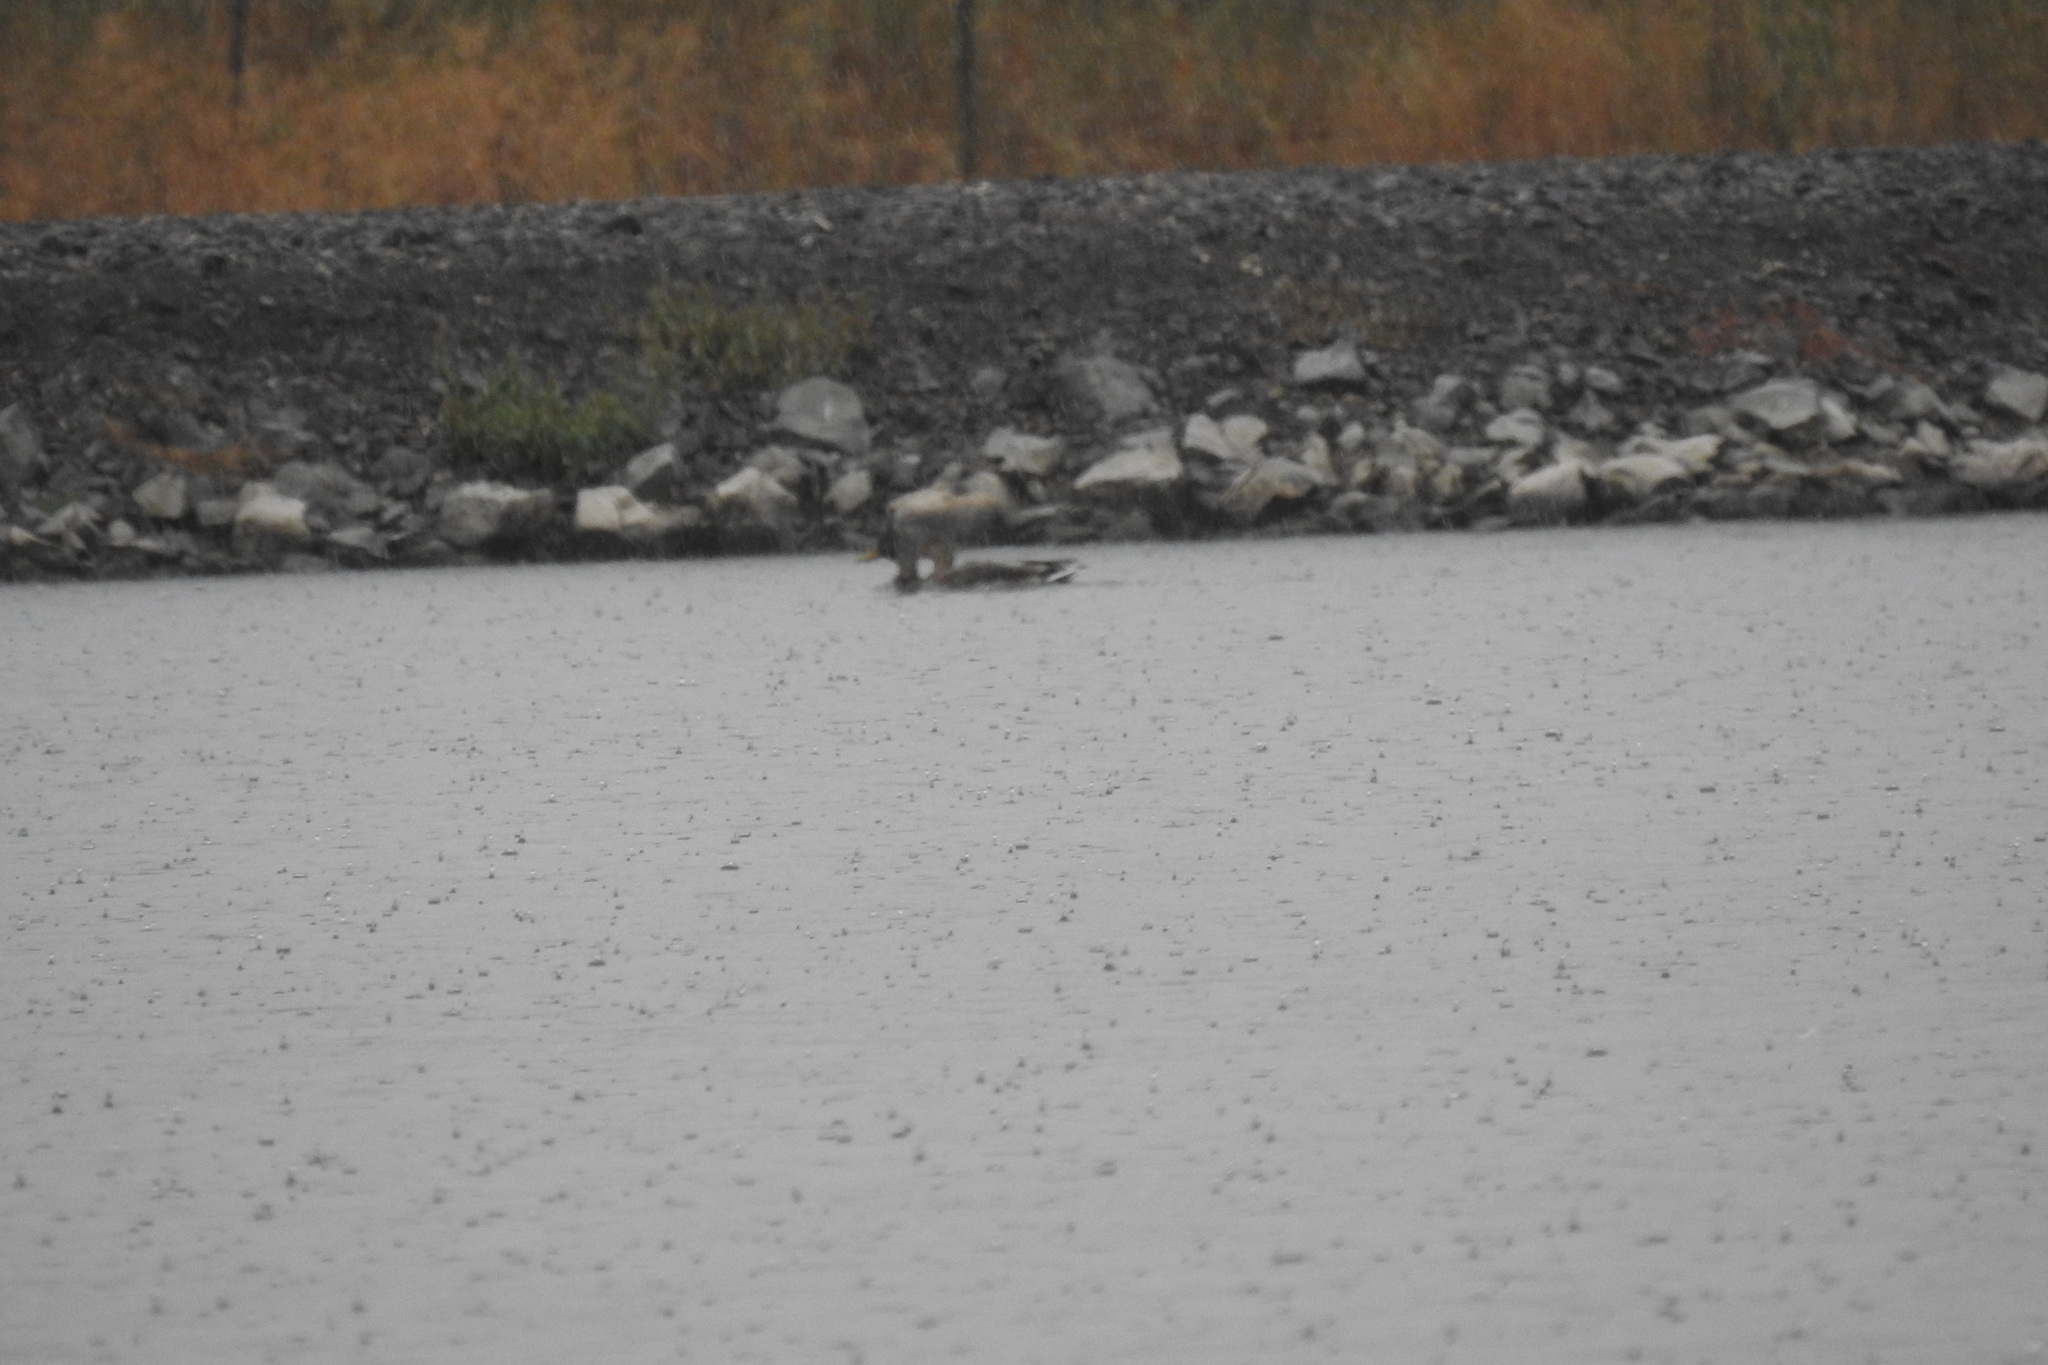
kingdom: Animalia
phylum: Chordata
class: Aves
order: Anseriformes
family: Anatidae
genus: Anas
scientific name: Anas platyrhynchos
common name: Mallard
